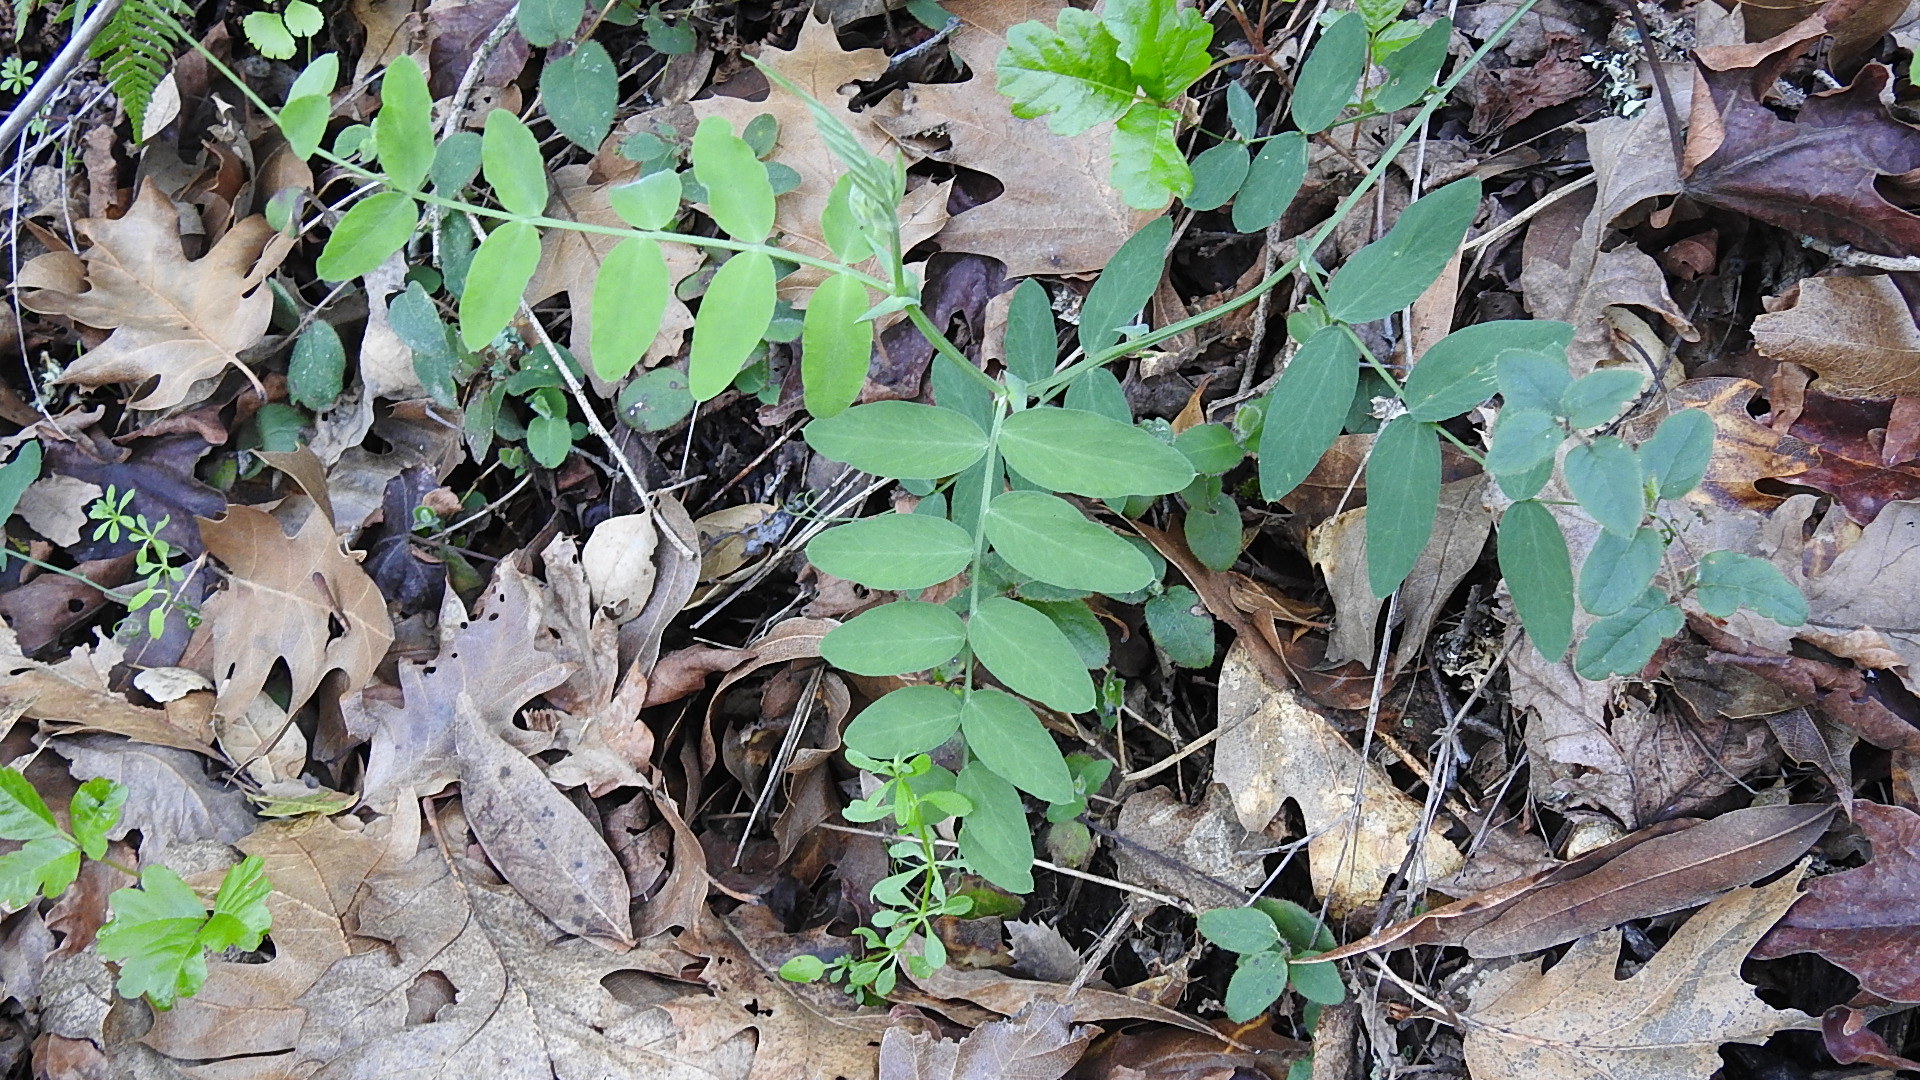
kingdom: Plantae
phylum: Tracheophyta
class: Magnoliopsida
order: Fabales
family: Fabaceae
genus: Lathyrus
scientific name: Lathyrus vestitus
